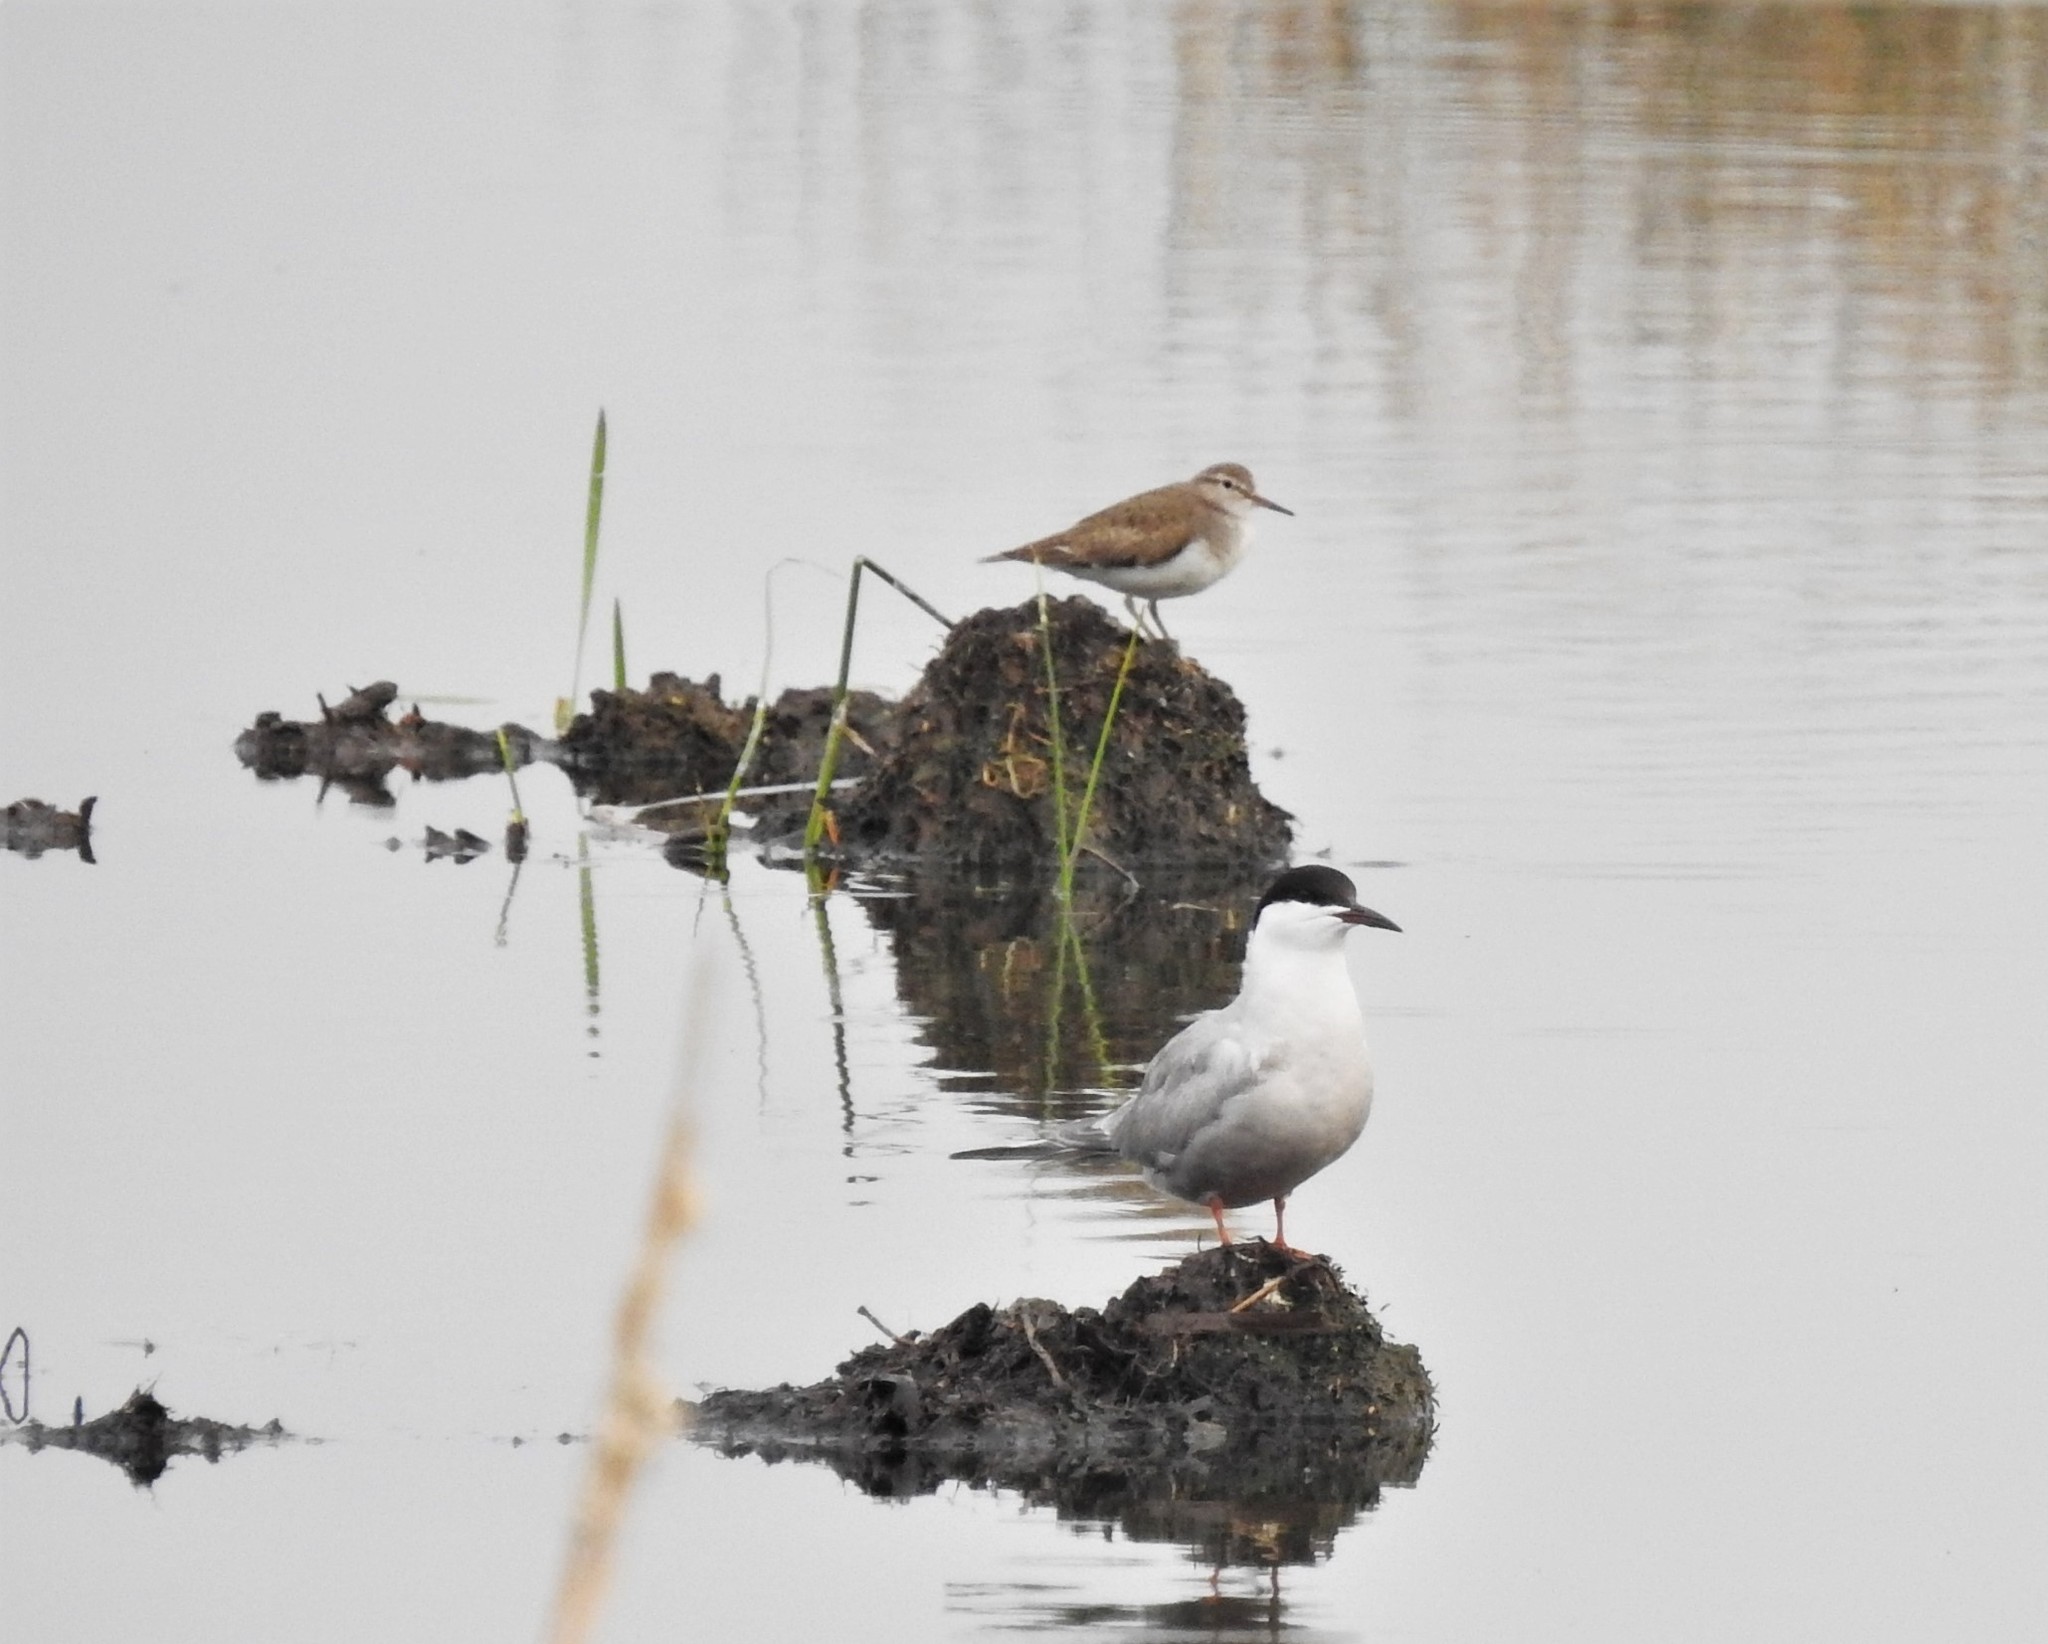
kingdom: Animalia
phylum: Chordata
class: Aves
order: Charadriiformes
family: Scolopacidae
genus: Actitis
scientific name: Actitis hypoleucos
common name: Common sandpiper
